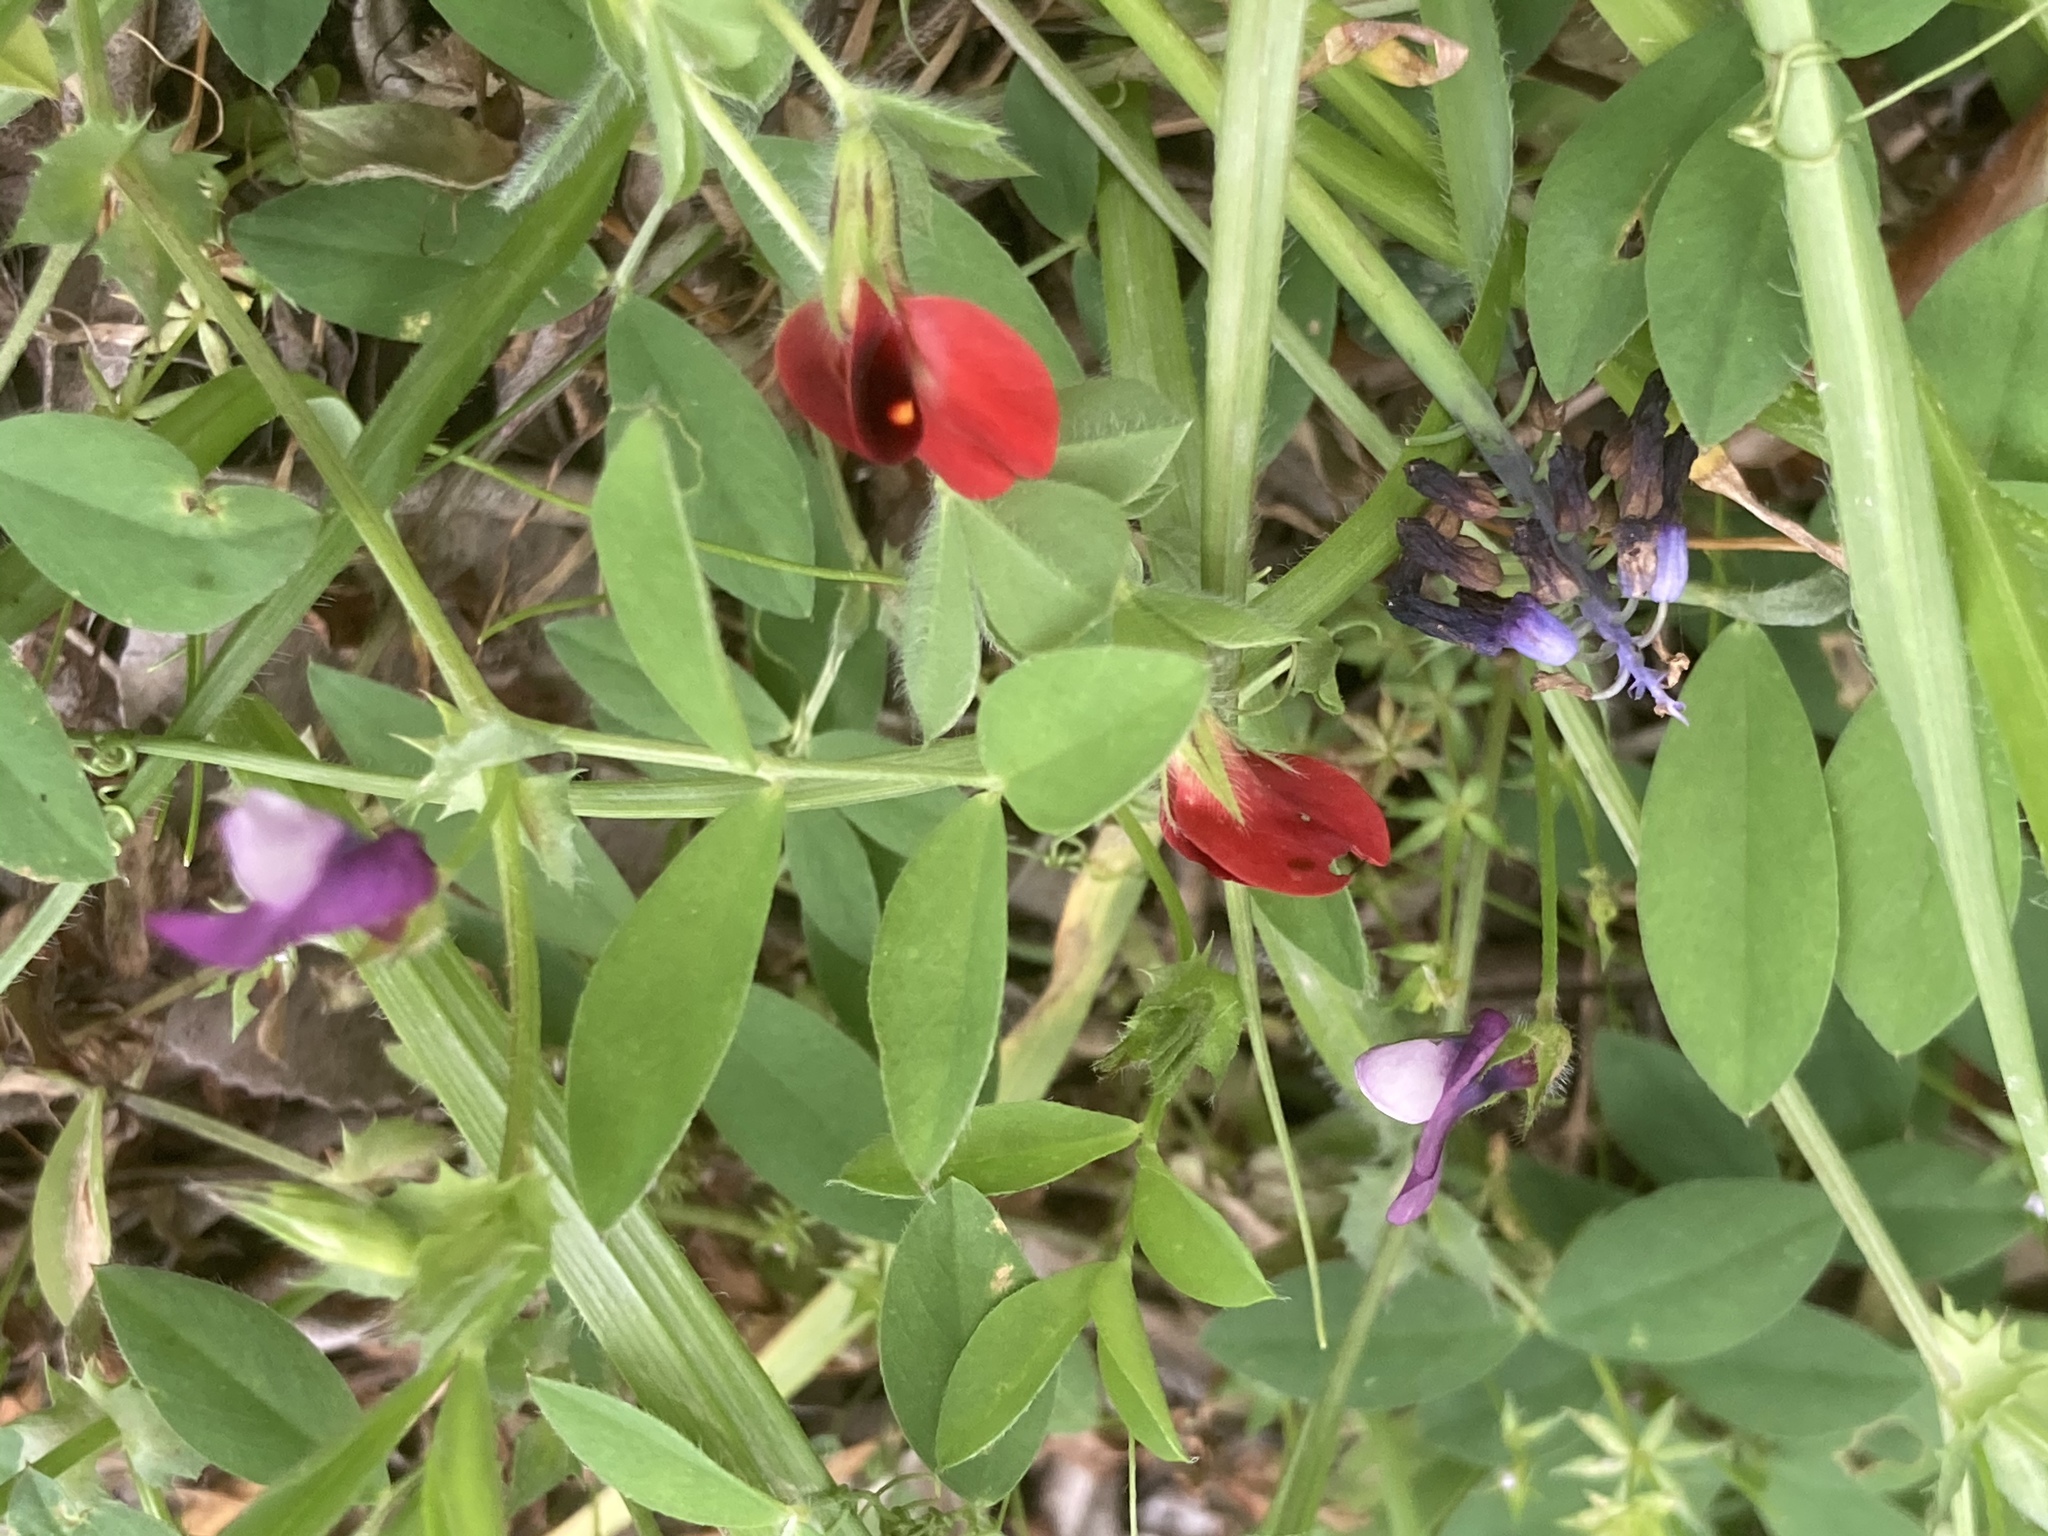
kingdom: Plantae
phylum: Tracheophyta
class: Magnoliopsida
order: Fabales
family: Fabaceae
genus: Lotus
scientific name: Lotus tetragonolobus
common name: Asparagus-pea
